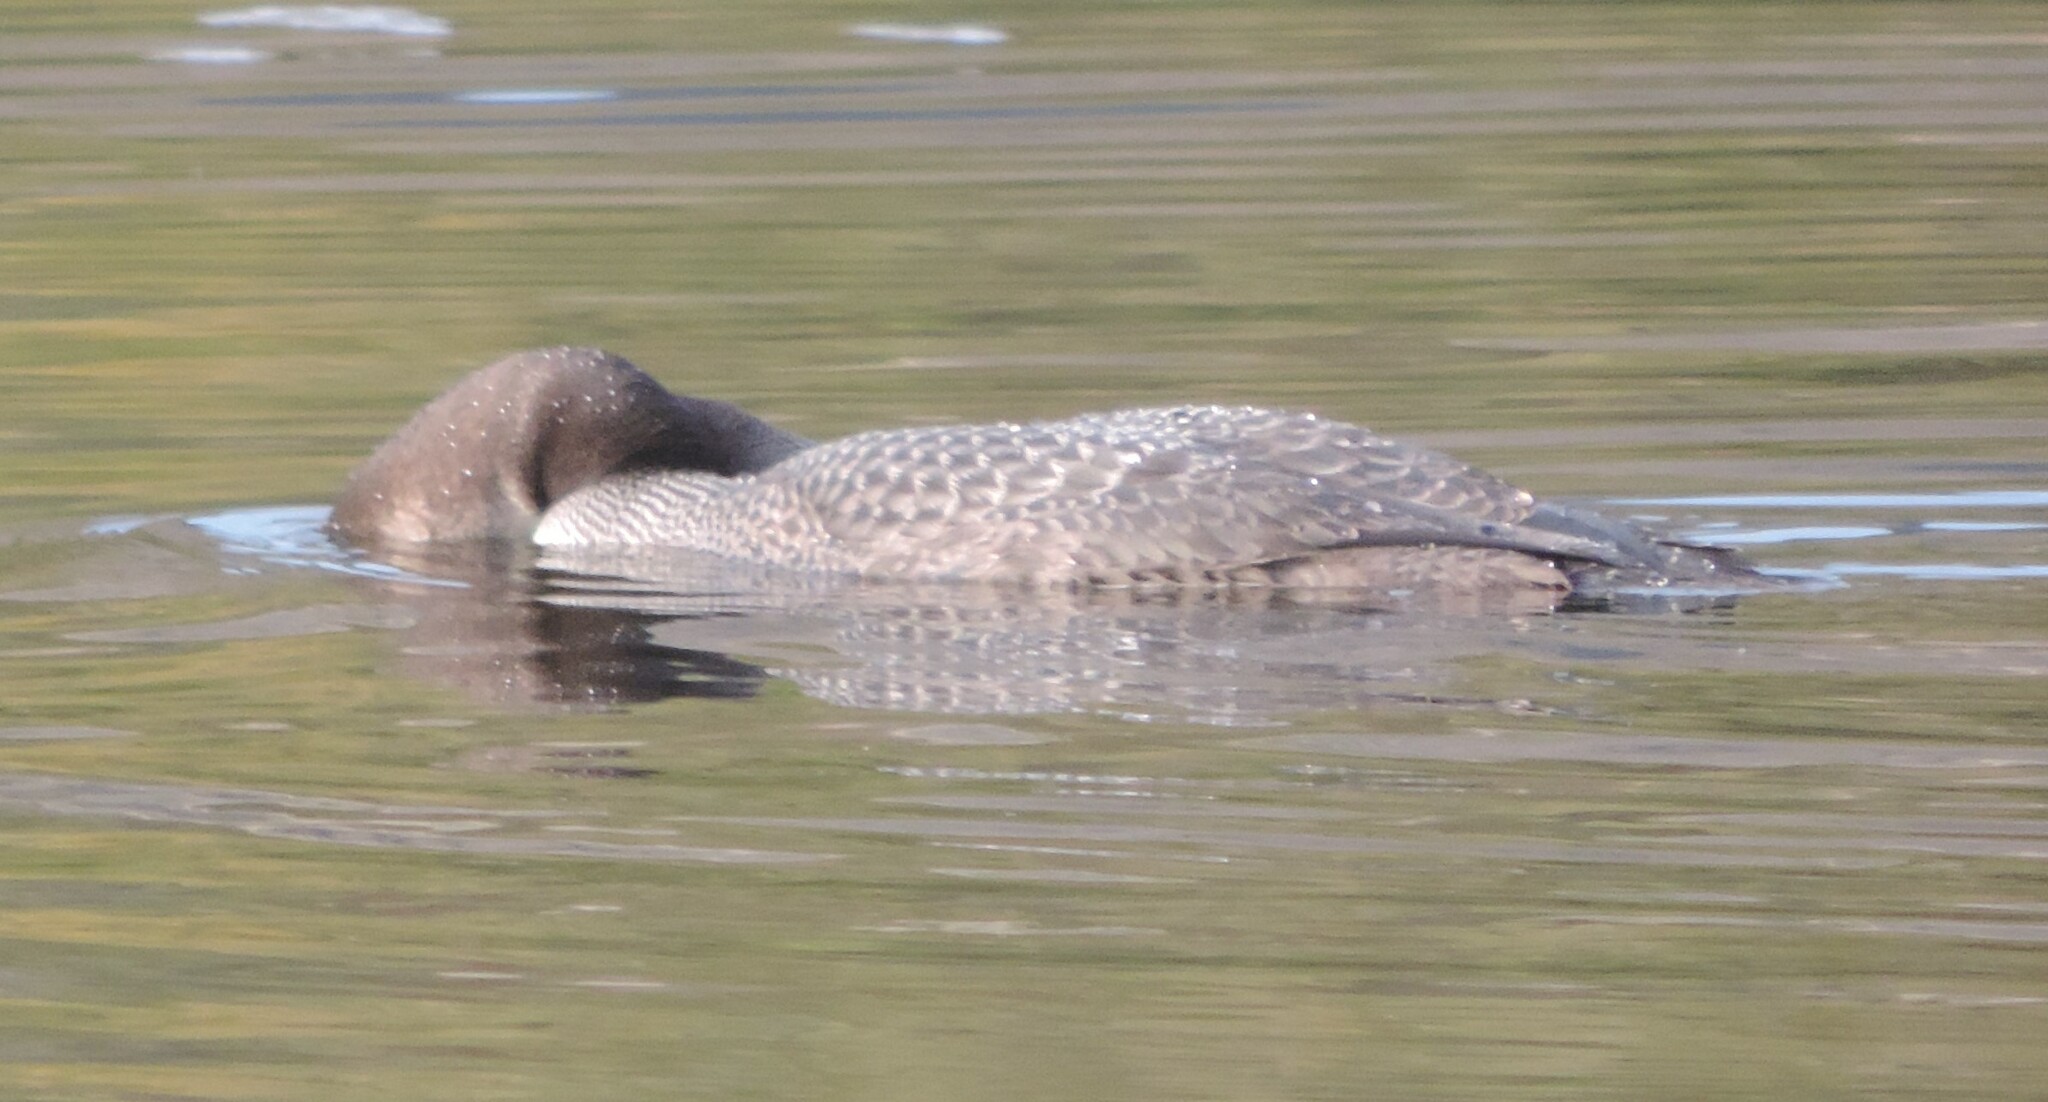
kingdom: Animalia
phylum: Chordata
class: Aves
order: Gaviiformes
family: Gaviidae
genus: Gavia
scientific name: Gavia immer
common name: Common loon
